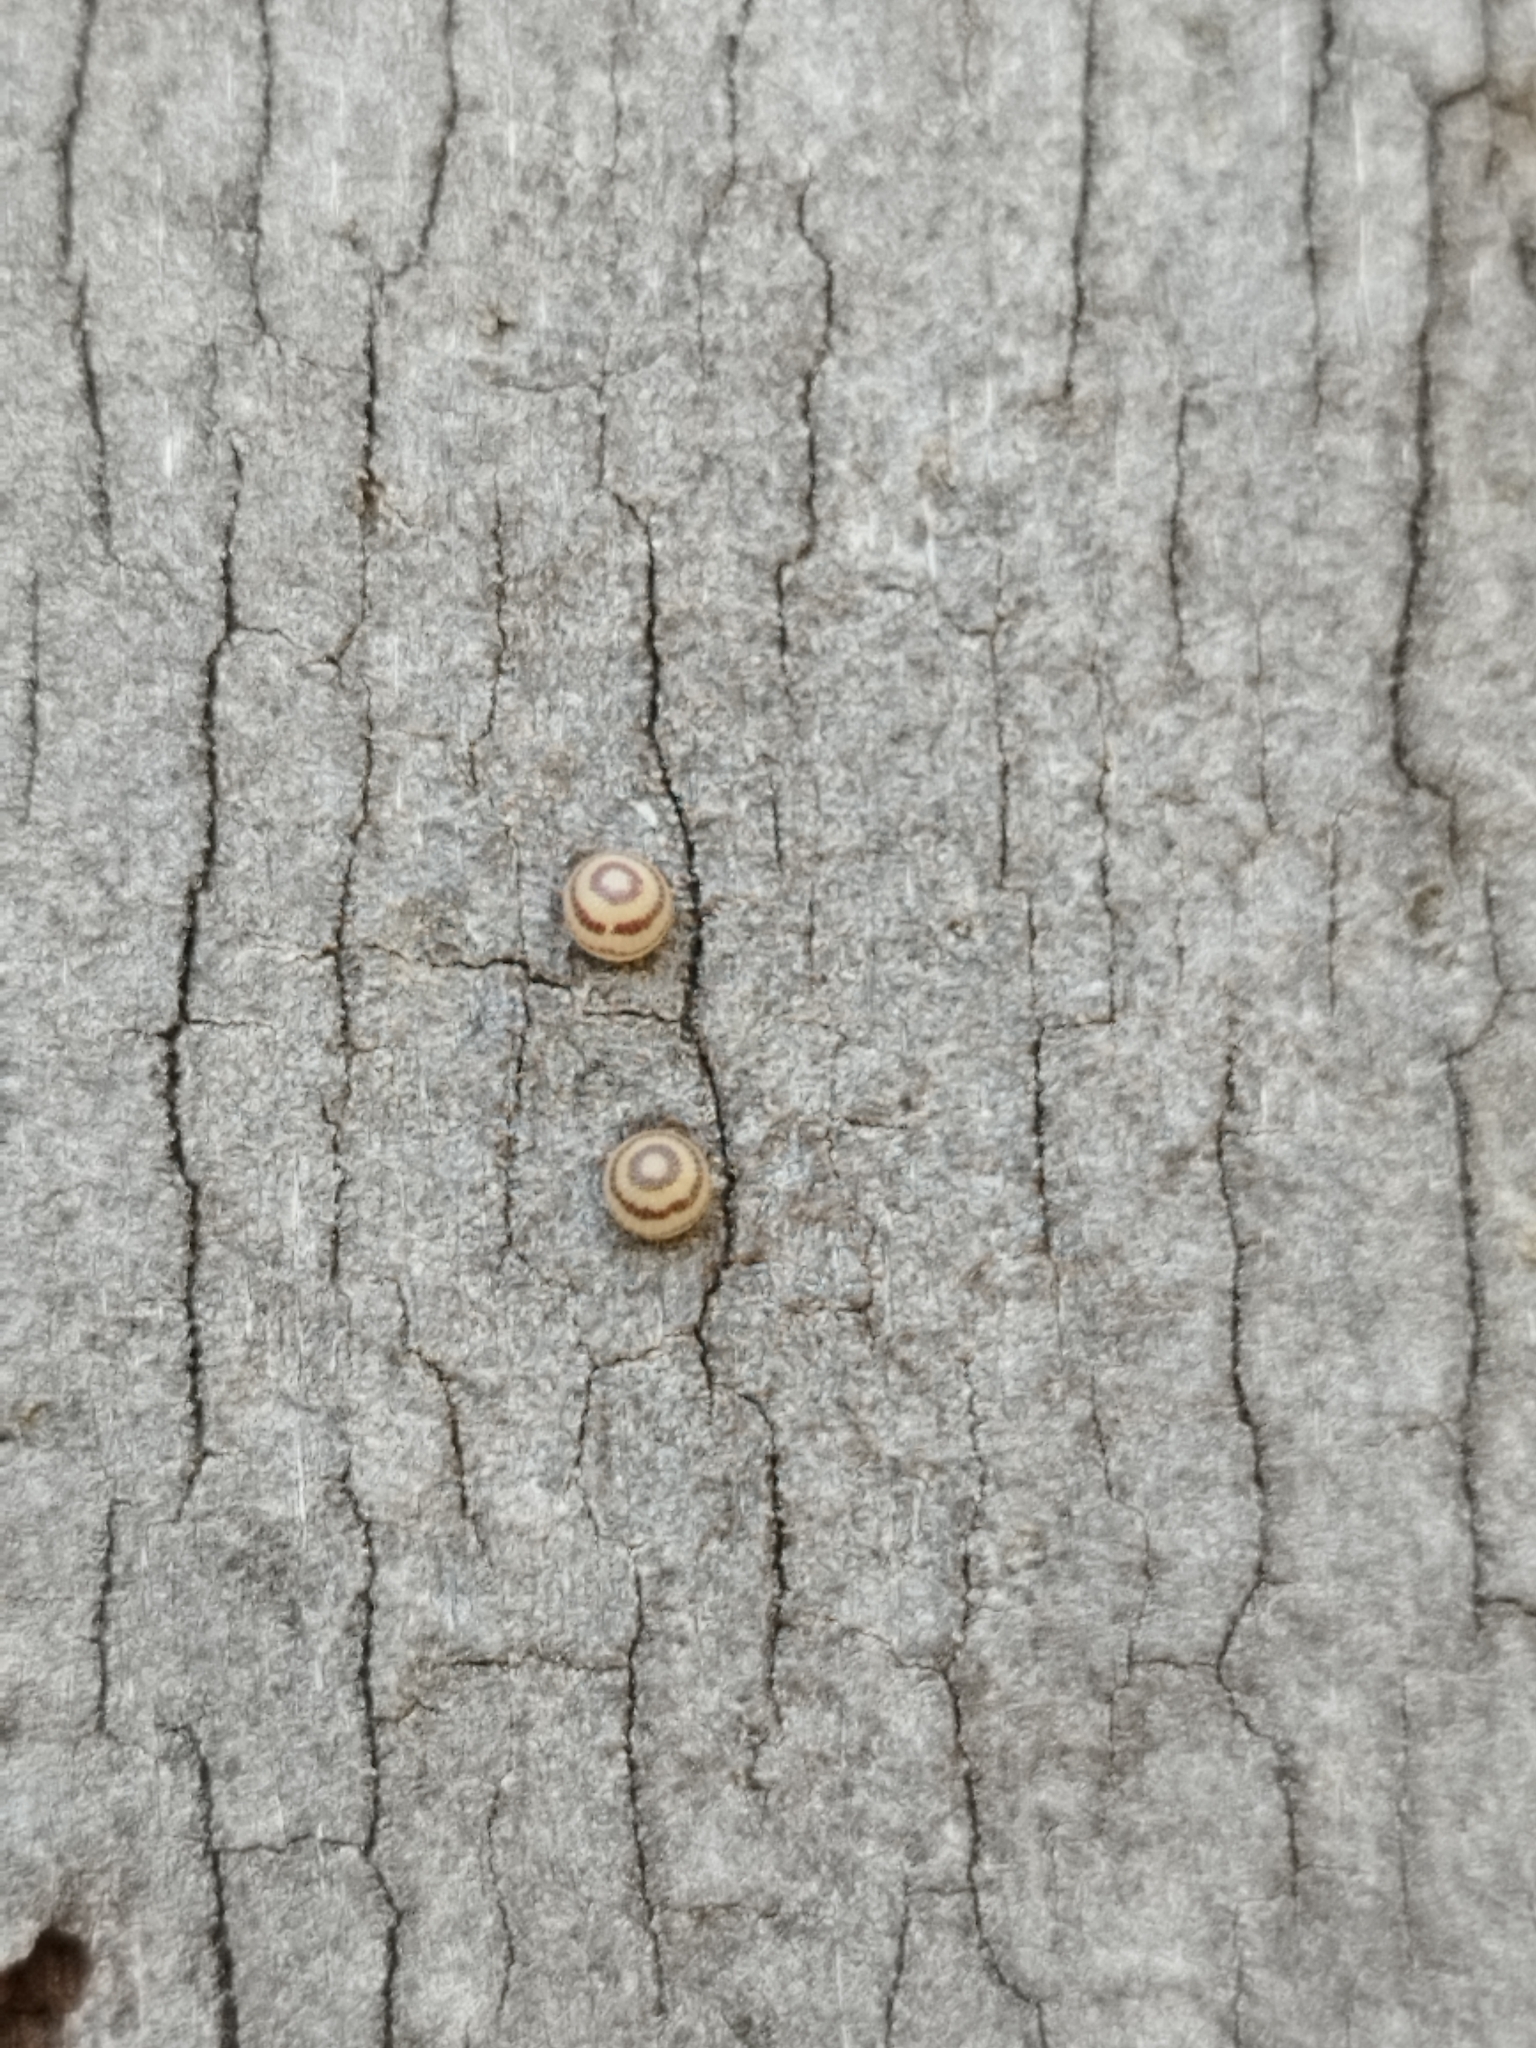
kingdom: Animalia
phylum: Arthropoda
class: Insecta
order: Lepidoptera
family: Nymphalidae
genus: Opsiphanes
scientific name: Opsiphanes invirae
